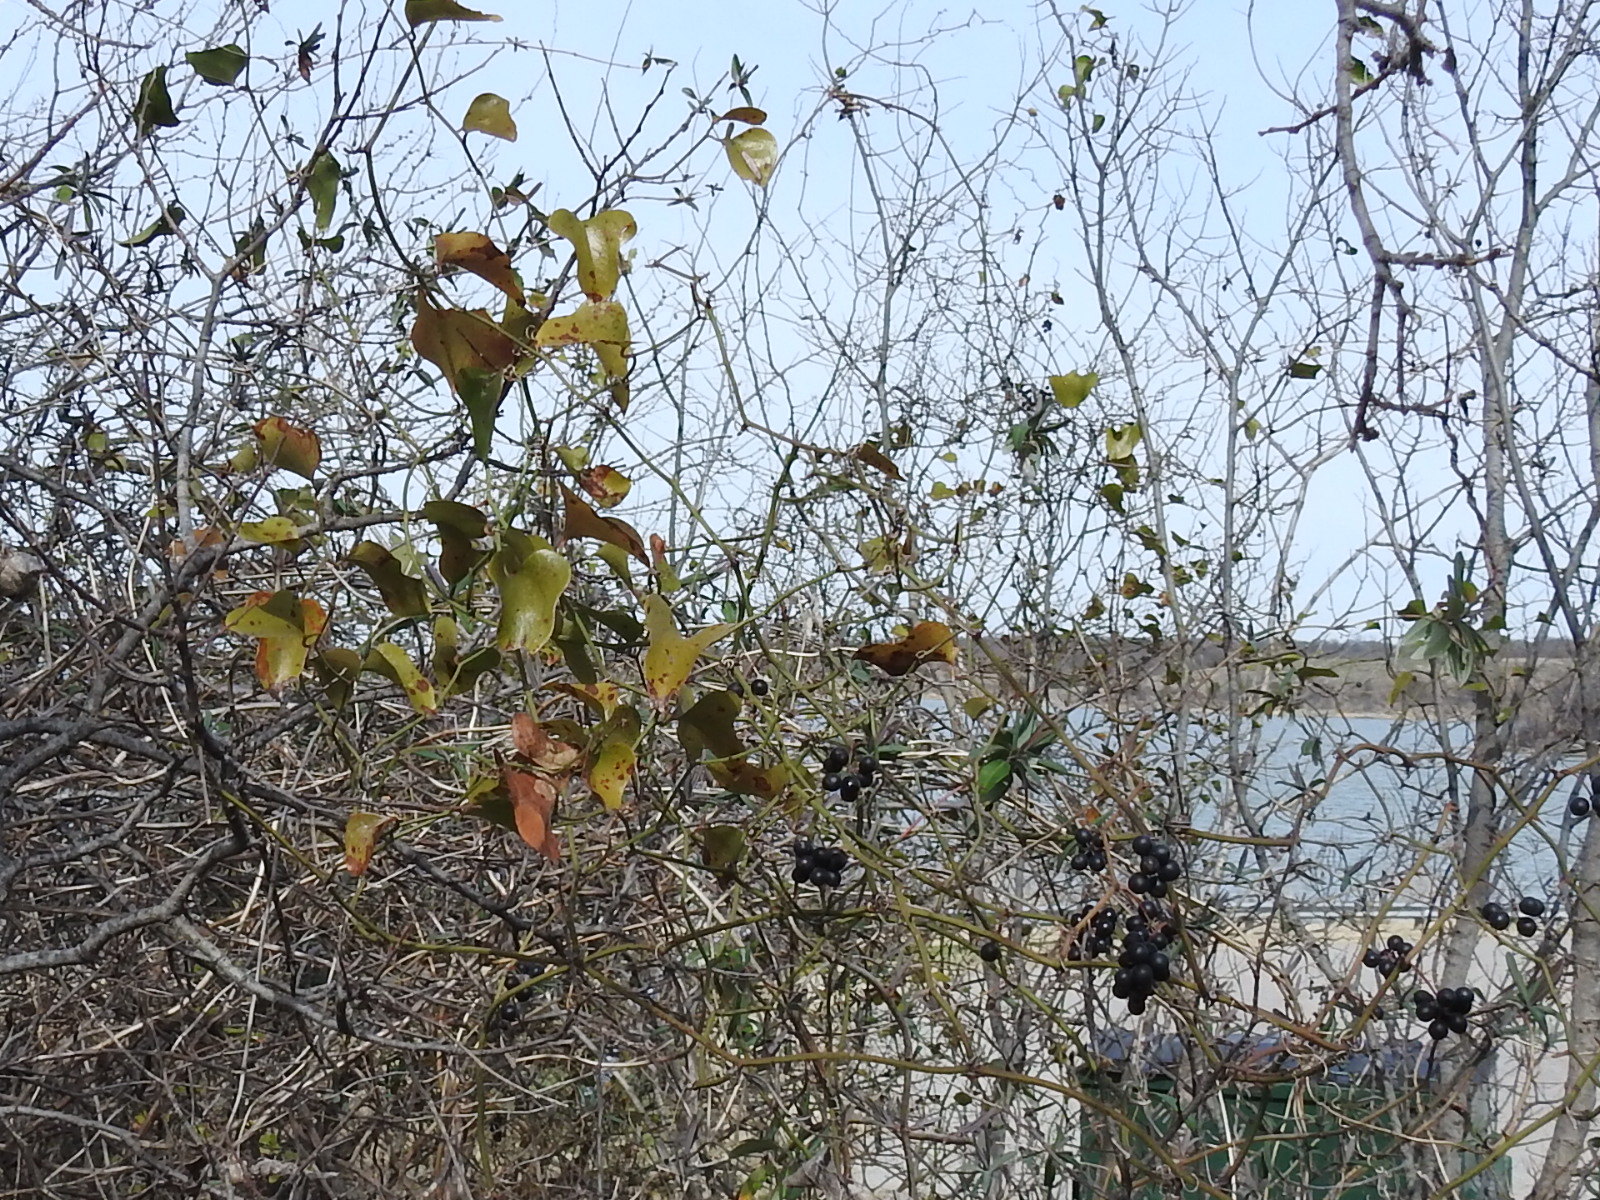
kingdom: Plantae
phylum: Tracheophyta
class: Liliopsida
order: Liliales
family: Smilacaceae
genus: Smilax
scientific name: Smilax bona-nox
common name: Catbrier
